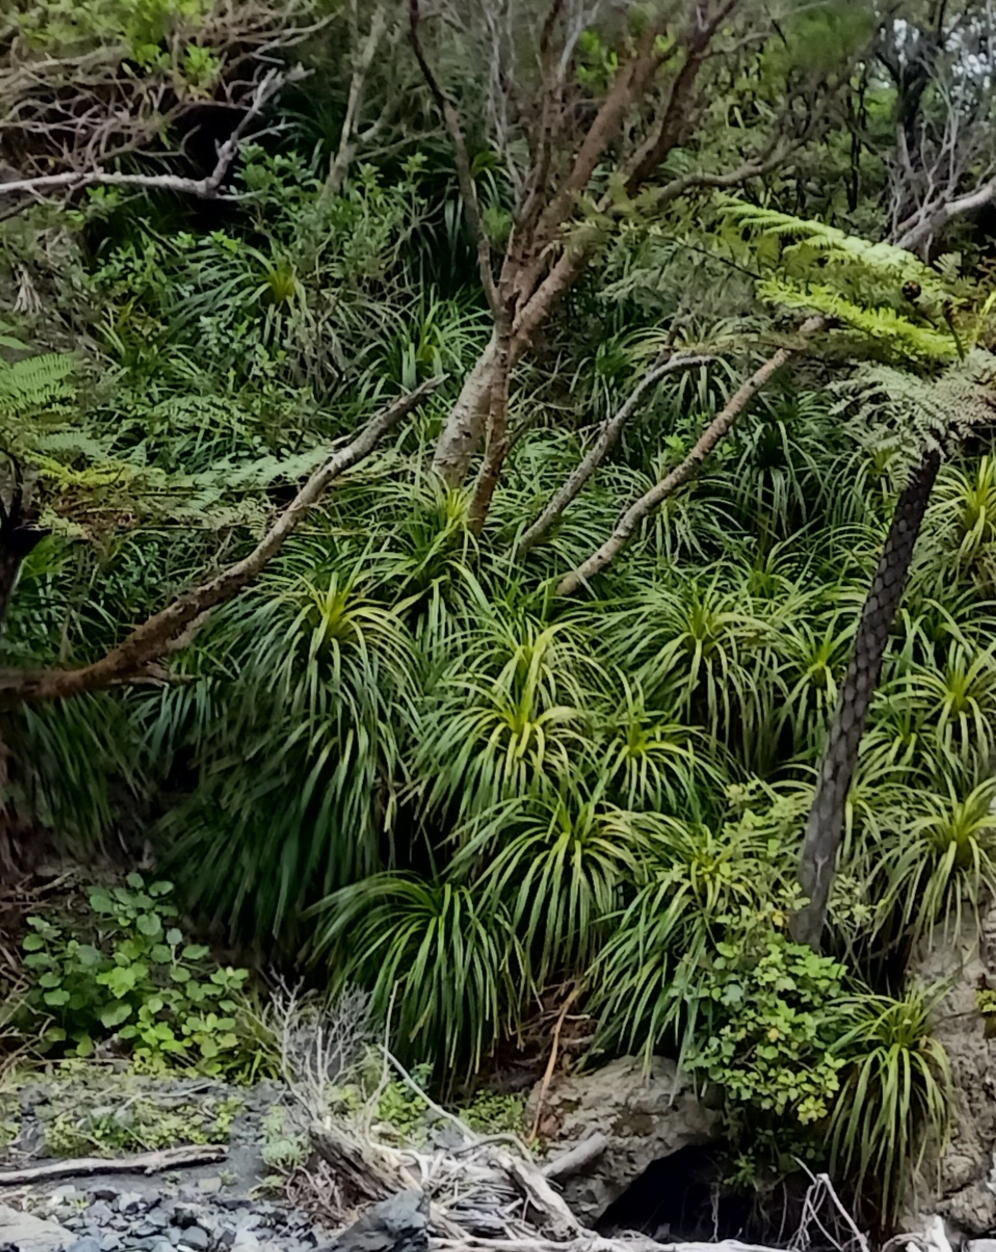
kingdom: Plantae
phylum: Tracheophyta
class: Liliopsida
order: Pandanales
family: Pandanaceae
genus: Freycinetia
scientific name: Freycinetia banksii
